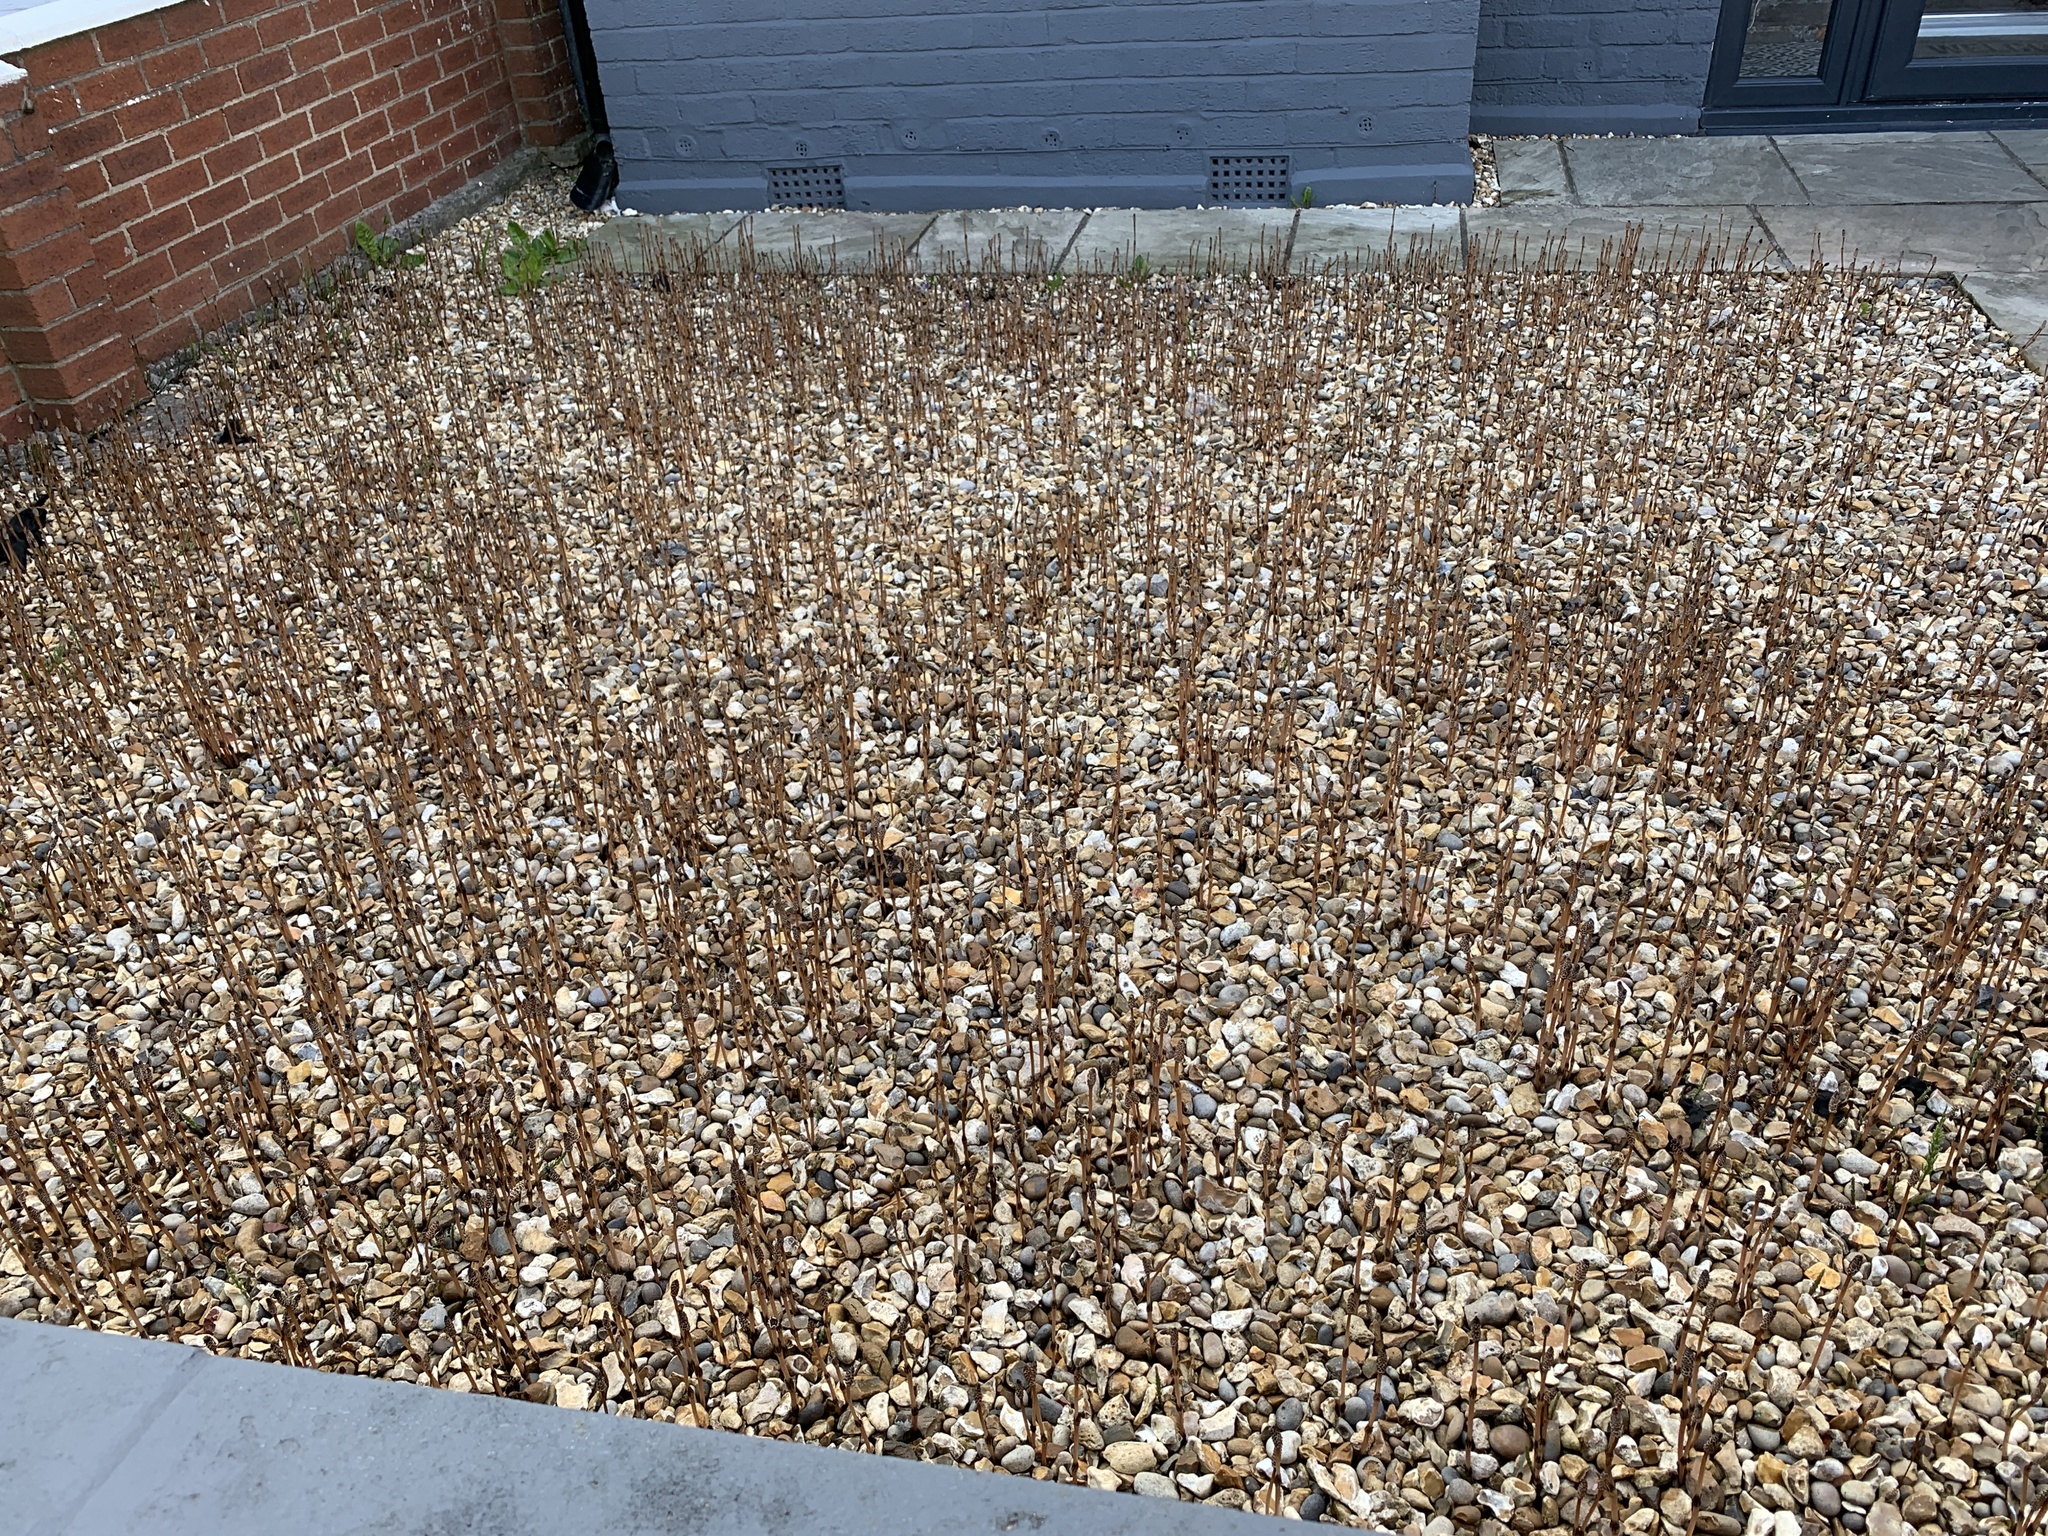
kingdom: Plantae
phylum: Tracheophyta
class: Polypodiopsida
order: Equisetales
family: Equisetaceae
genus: Equisetum
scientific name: Equisetum arvense
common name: Field horsetail
